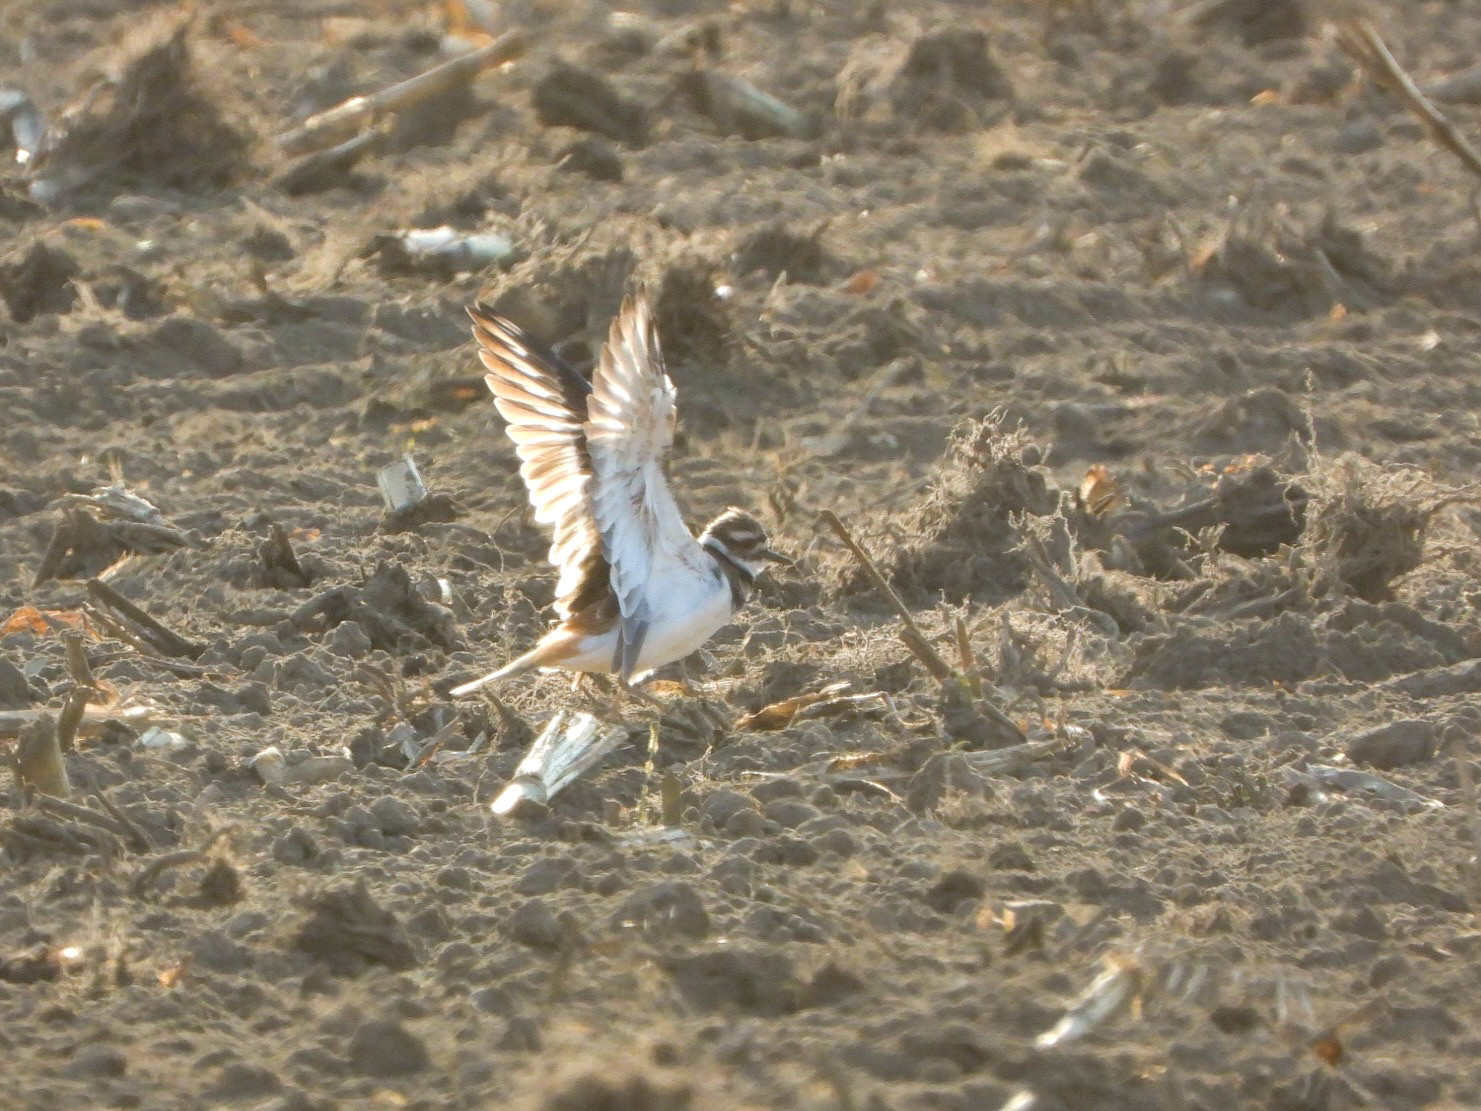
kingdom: Animalia
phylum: Chordata
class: Aves
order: Charadriiformes
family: Charadriidae
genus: Charadrius
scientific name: Charadrius vociferus
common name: Killdeer
